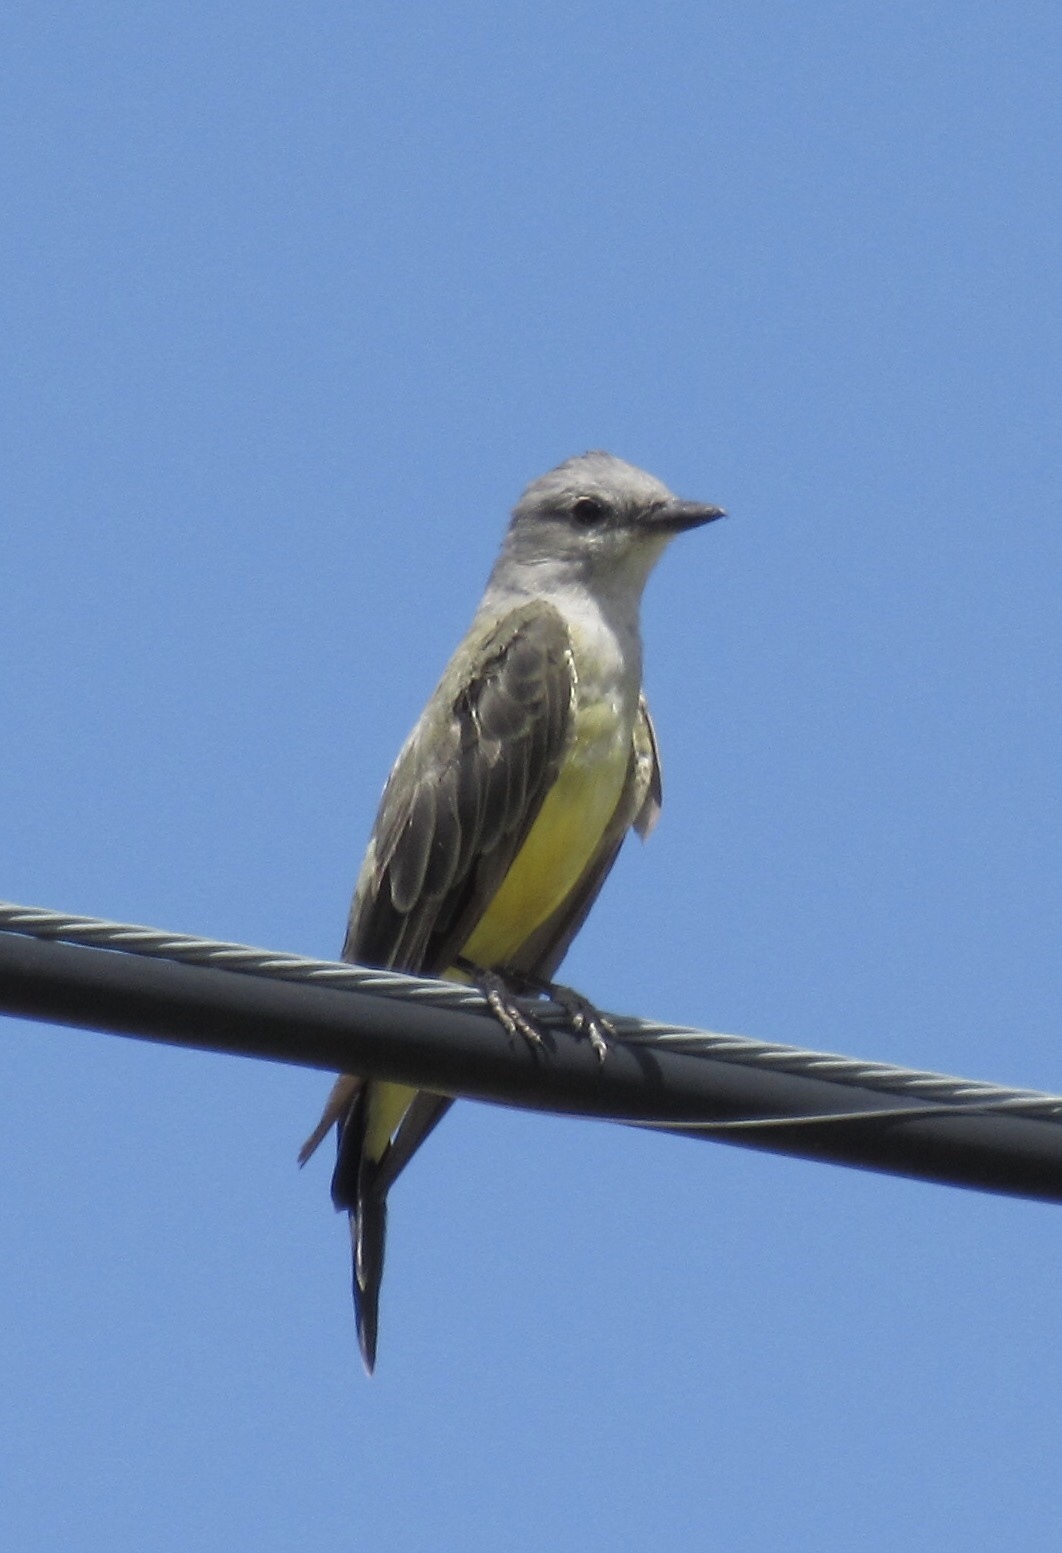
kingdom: Animalia
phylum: Chordata
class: Aves
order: Passeriformes
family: Tyrannidae
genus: Tyrannus
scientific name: Tyrannus verticalis
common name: Western kingbird
